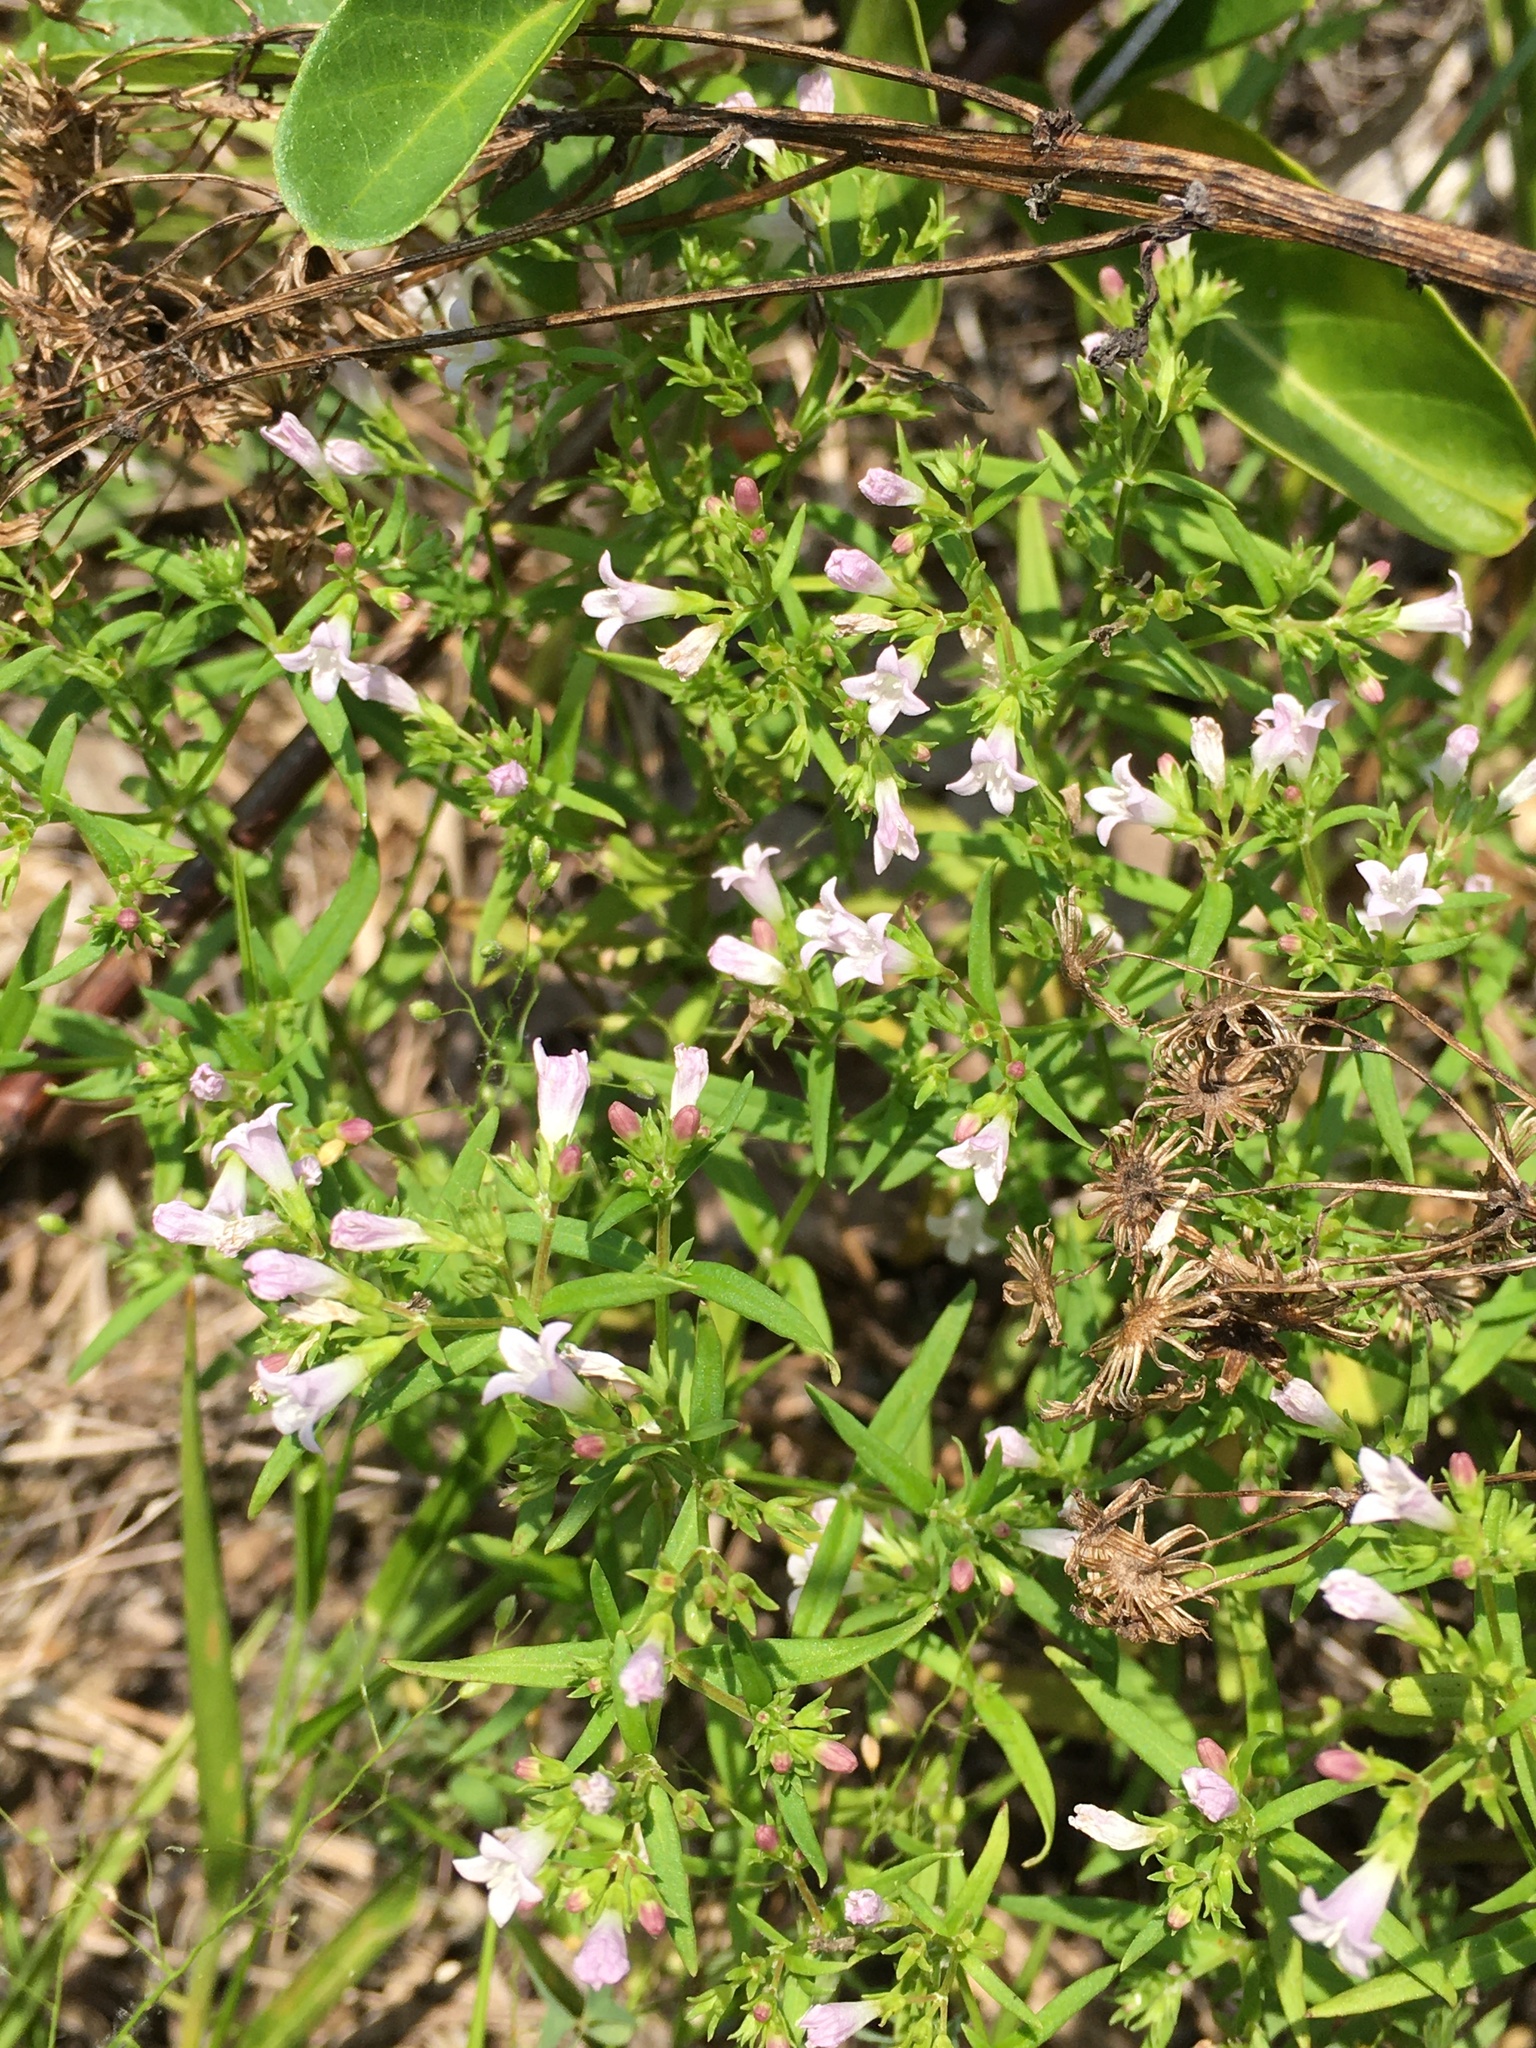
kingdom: Plantae
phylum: Tracheophyta
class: Magnoliopsida
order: Gentianales
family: Rubiaceae
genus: Houstonia
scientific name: Houstonia longifolia
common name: Long-leaved bluets
